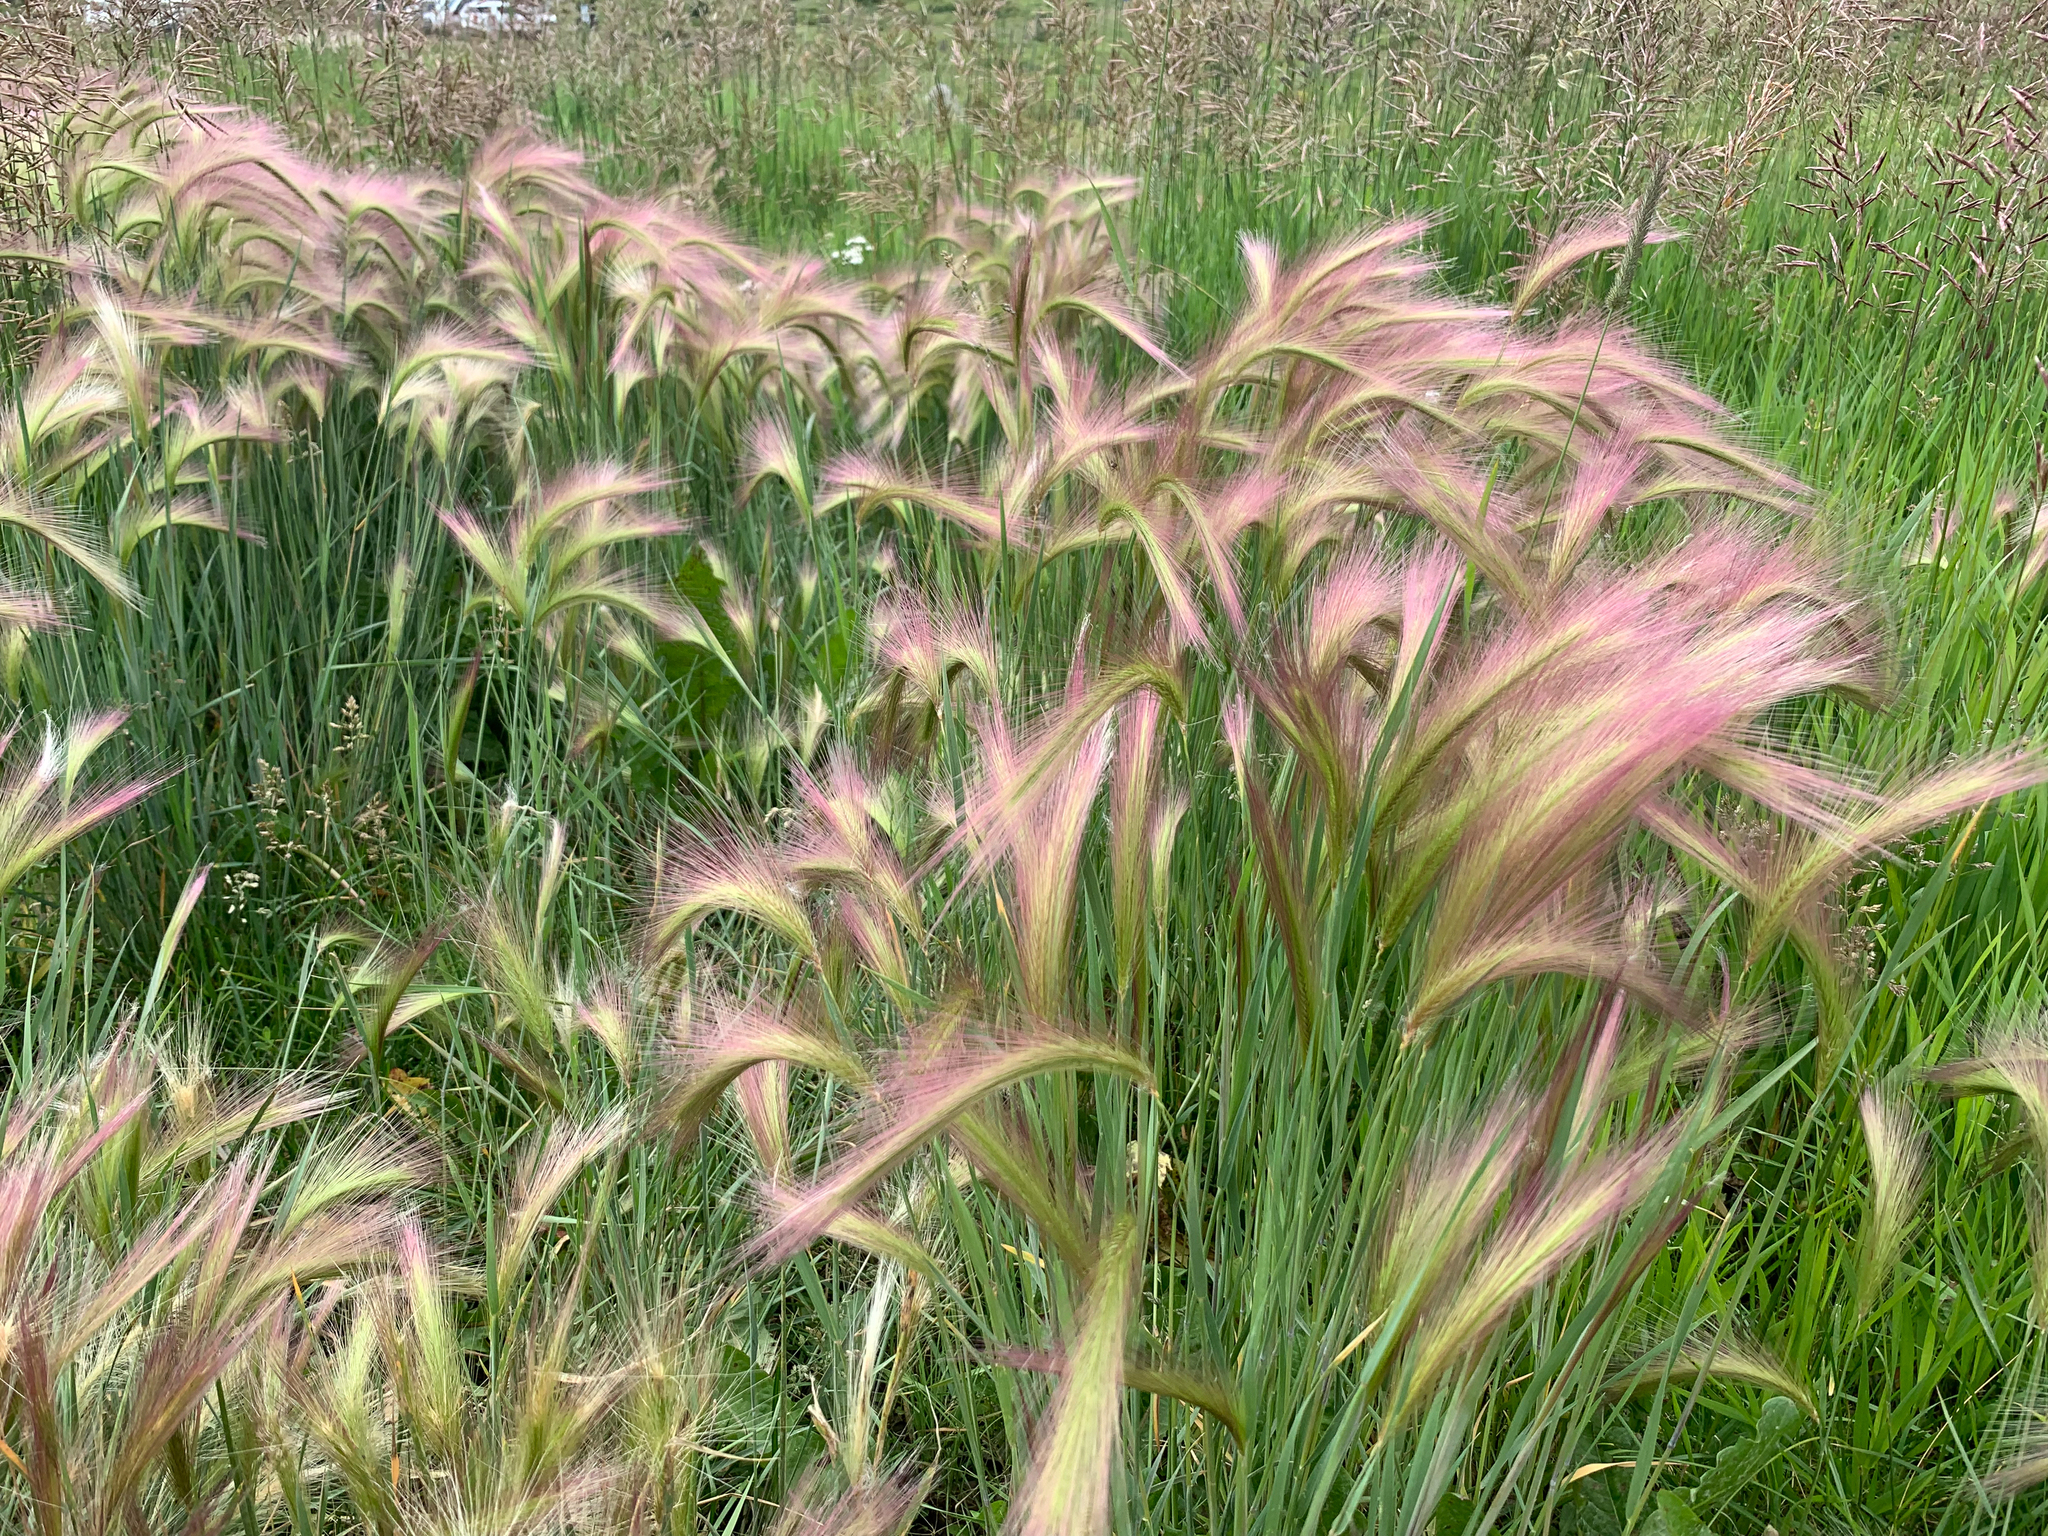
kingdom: Plantae
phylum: Tracheophyta
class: Liliopsida
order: Poales
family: Poaceae
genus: Hordeum
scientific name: Hordeum jubatum
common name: Foxtail barley
